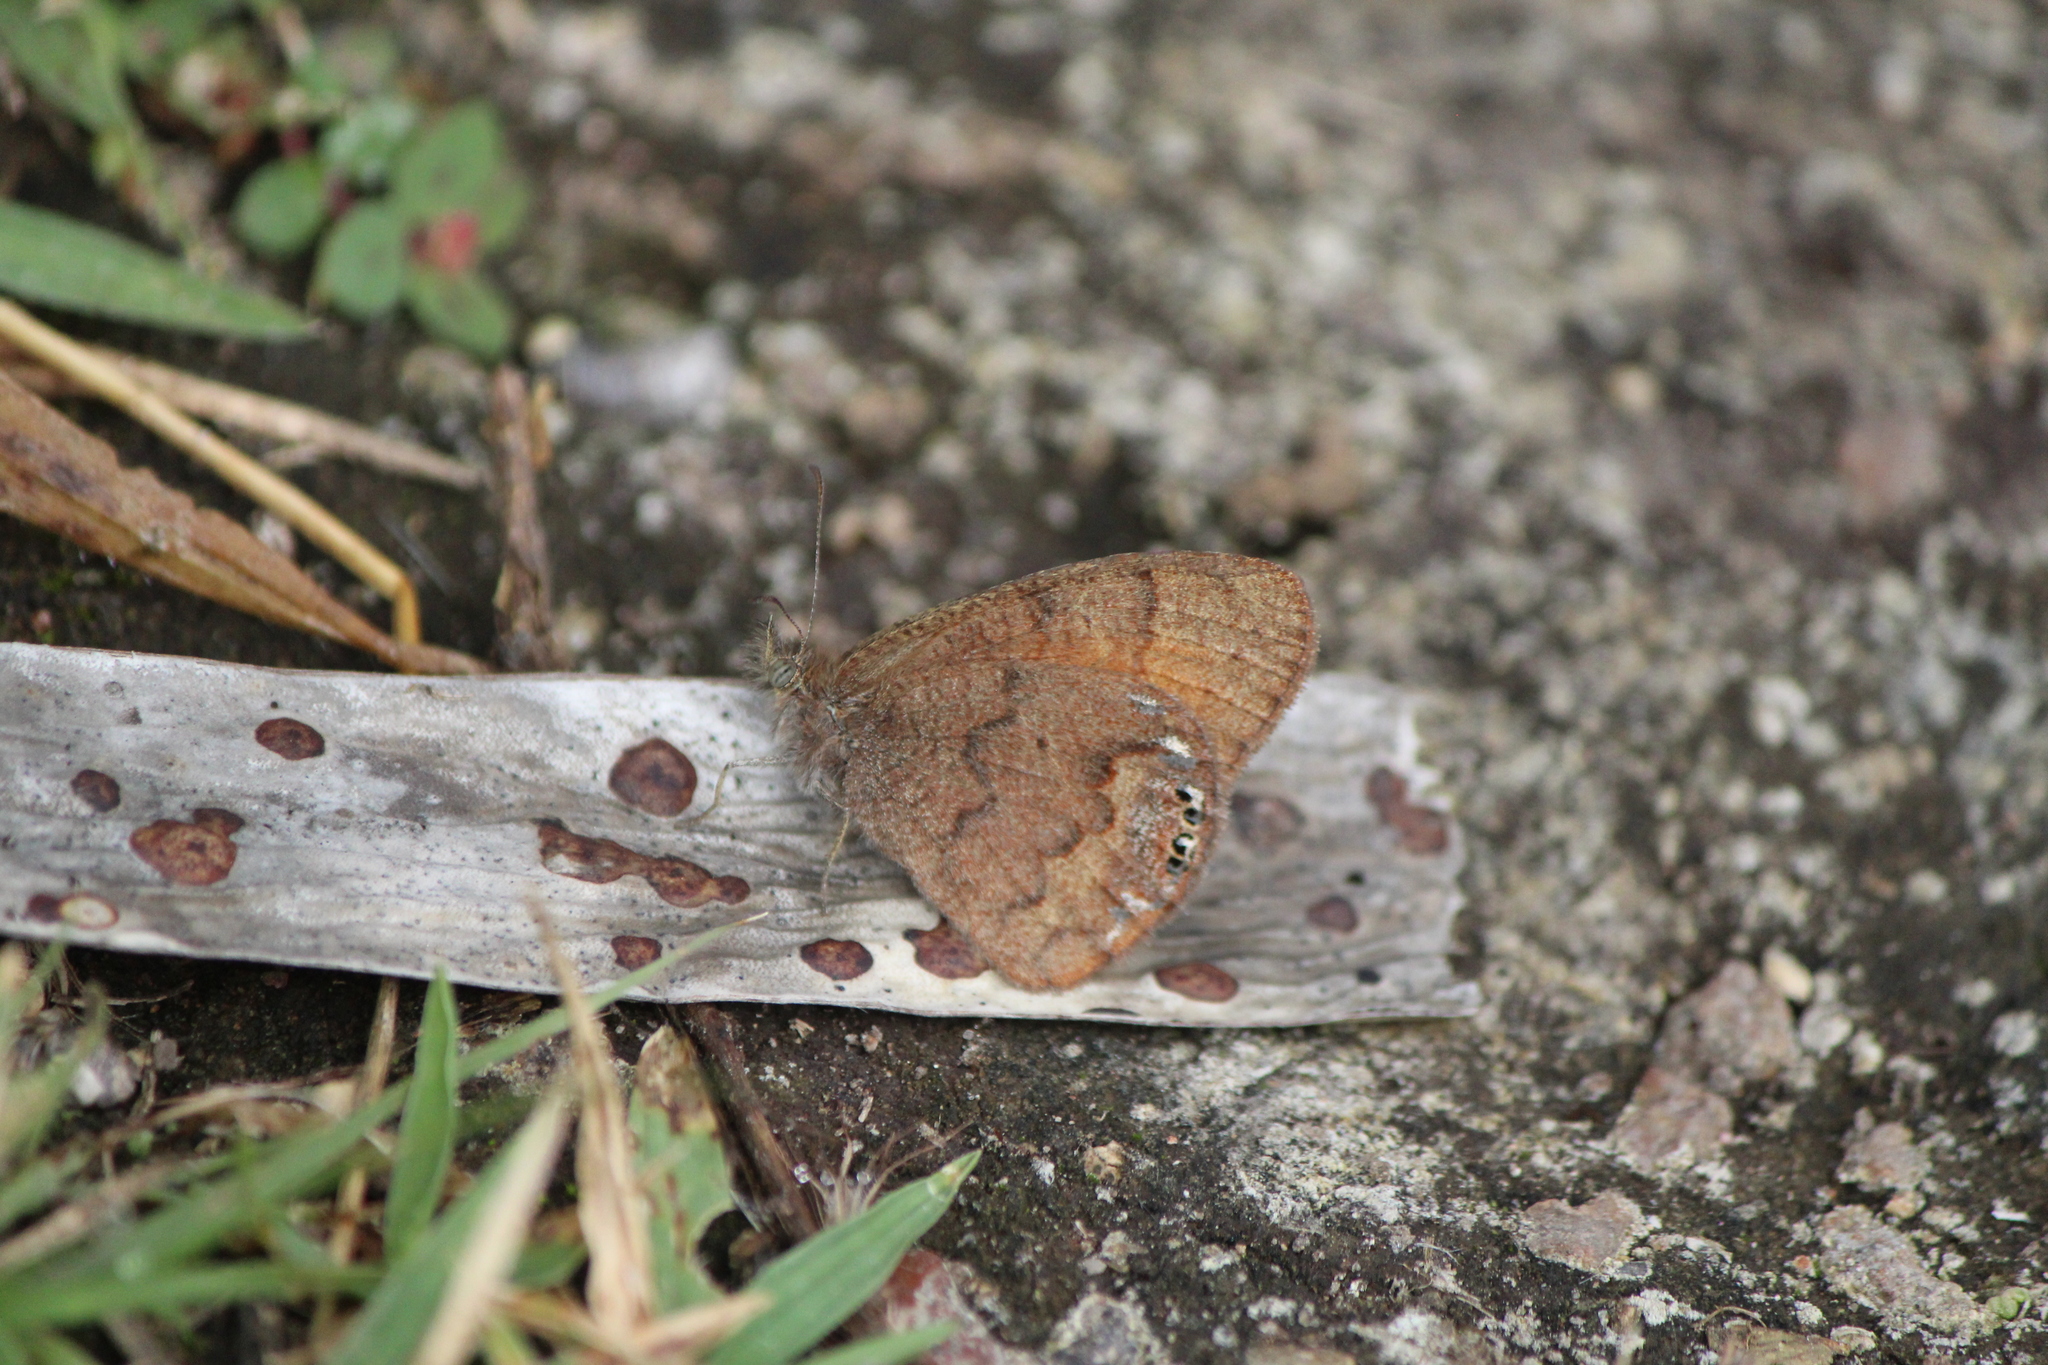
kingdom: Animalia
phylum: Arthropoda
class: Insecta
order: Lepidoptera
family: Nymphalidae
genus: Euptychia
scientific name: Euptychia Cyllopsis pertepida
